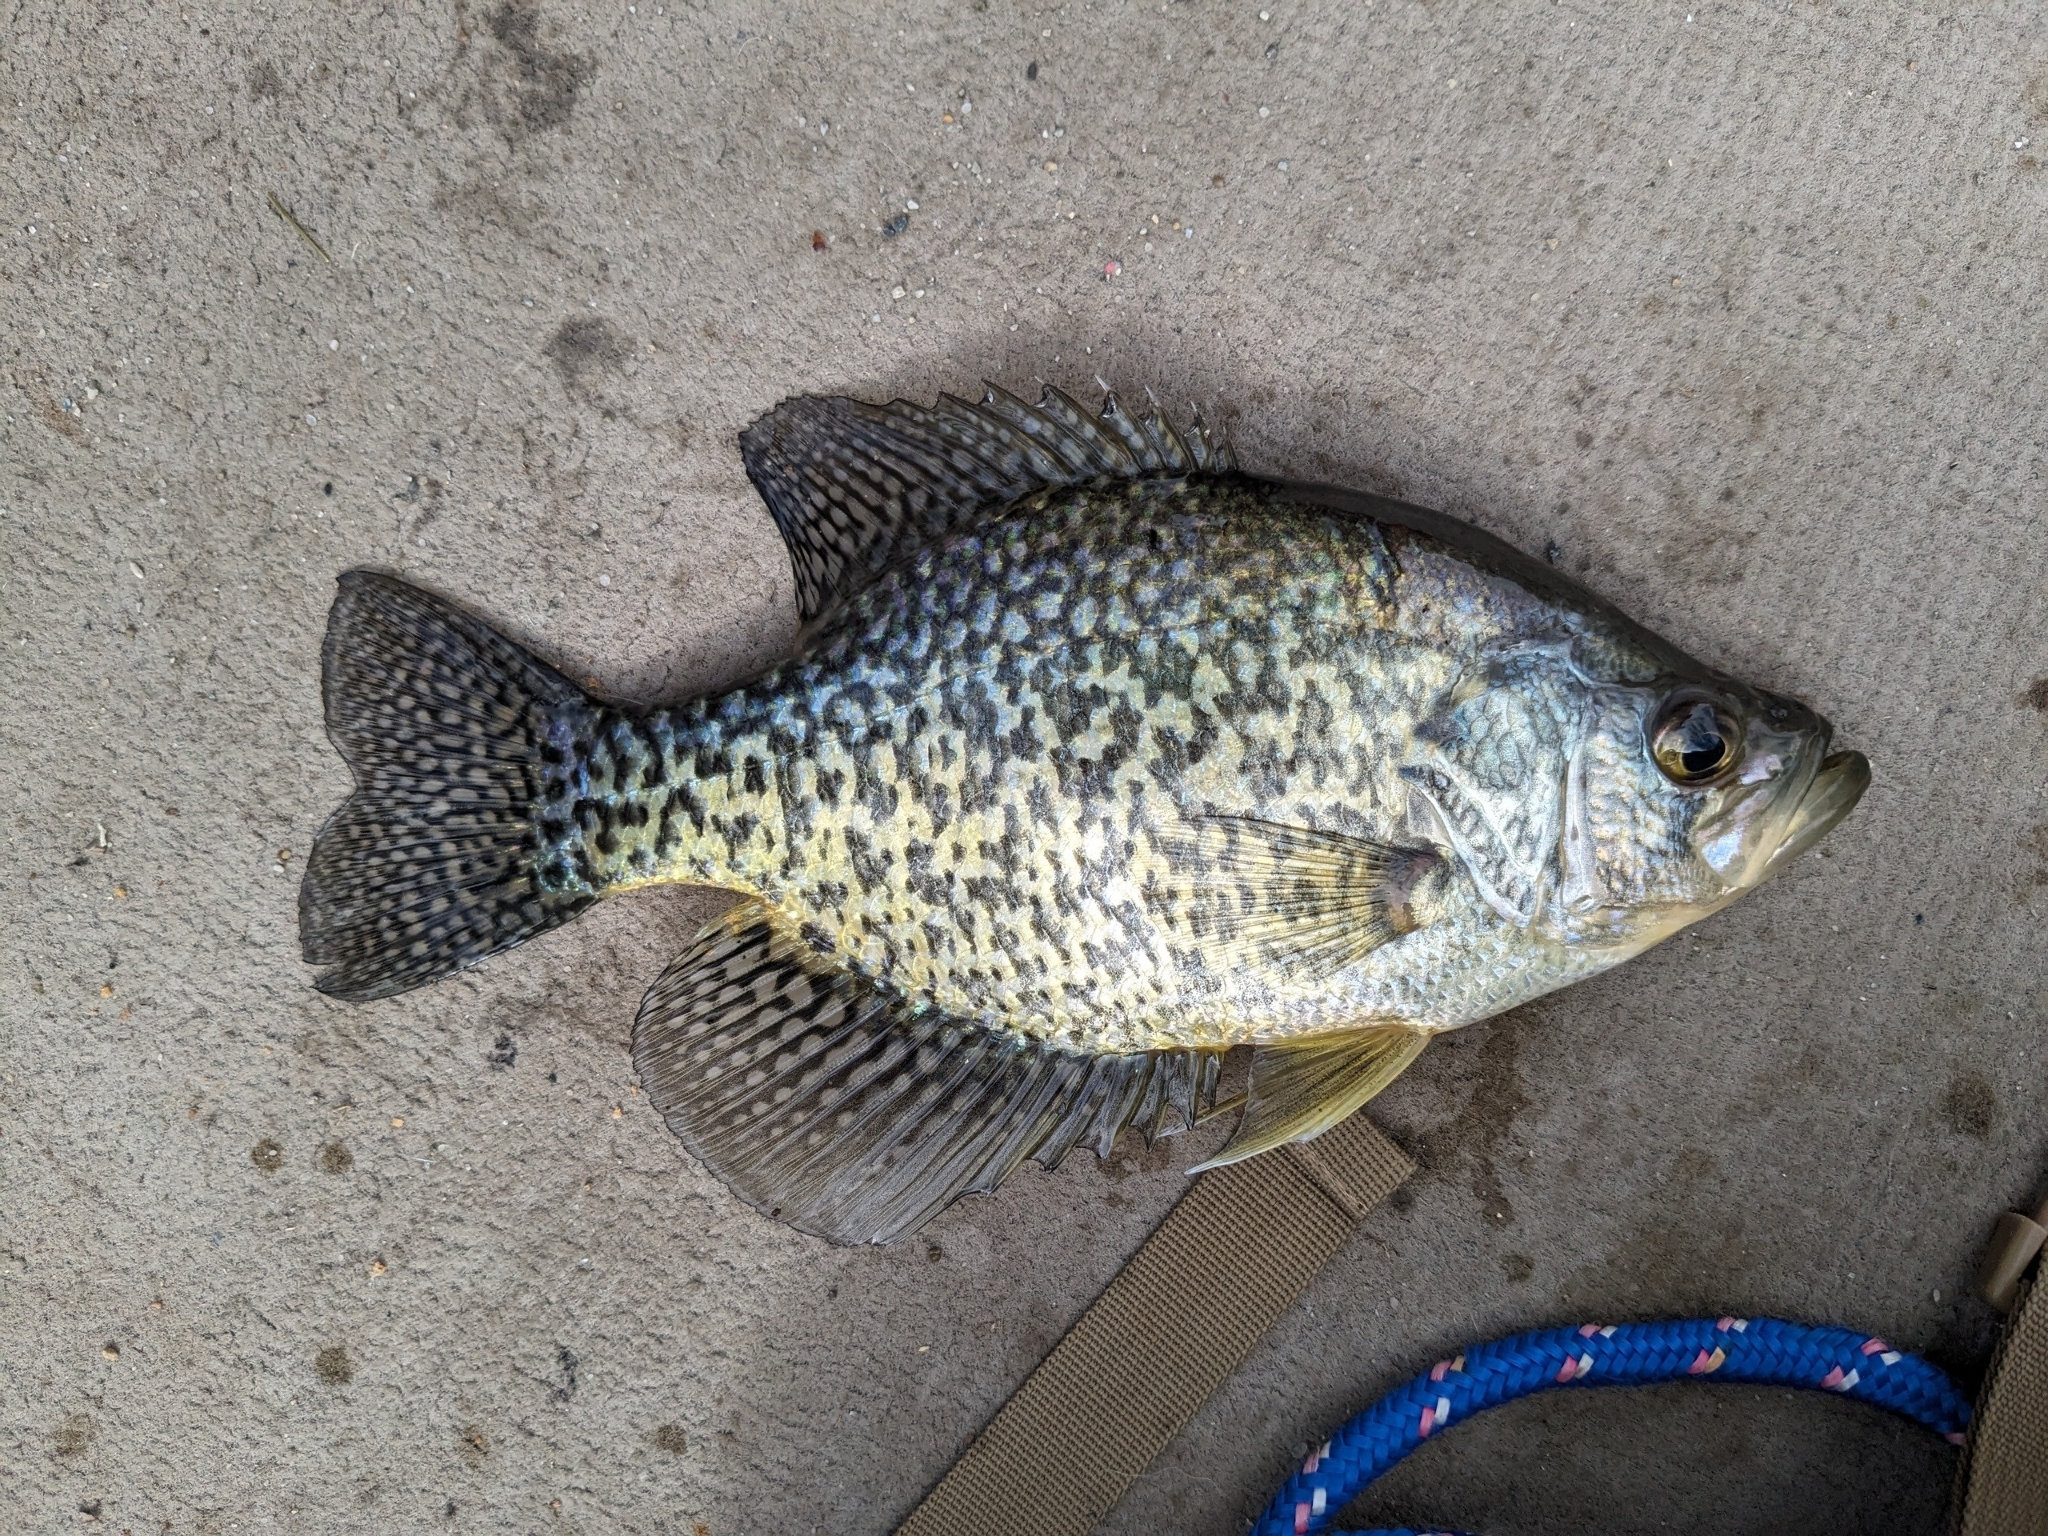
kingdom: Animalia
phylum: Chordata
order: Perciformes
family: Centrarchidae
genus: Pomoxis
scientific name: Pomoxis nigromaculatus
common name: Black crappie
